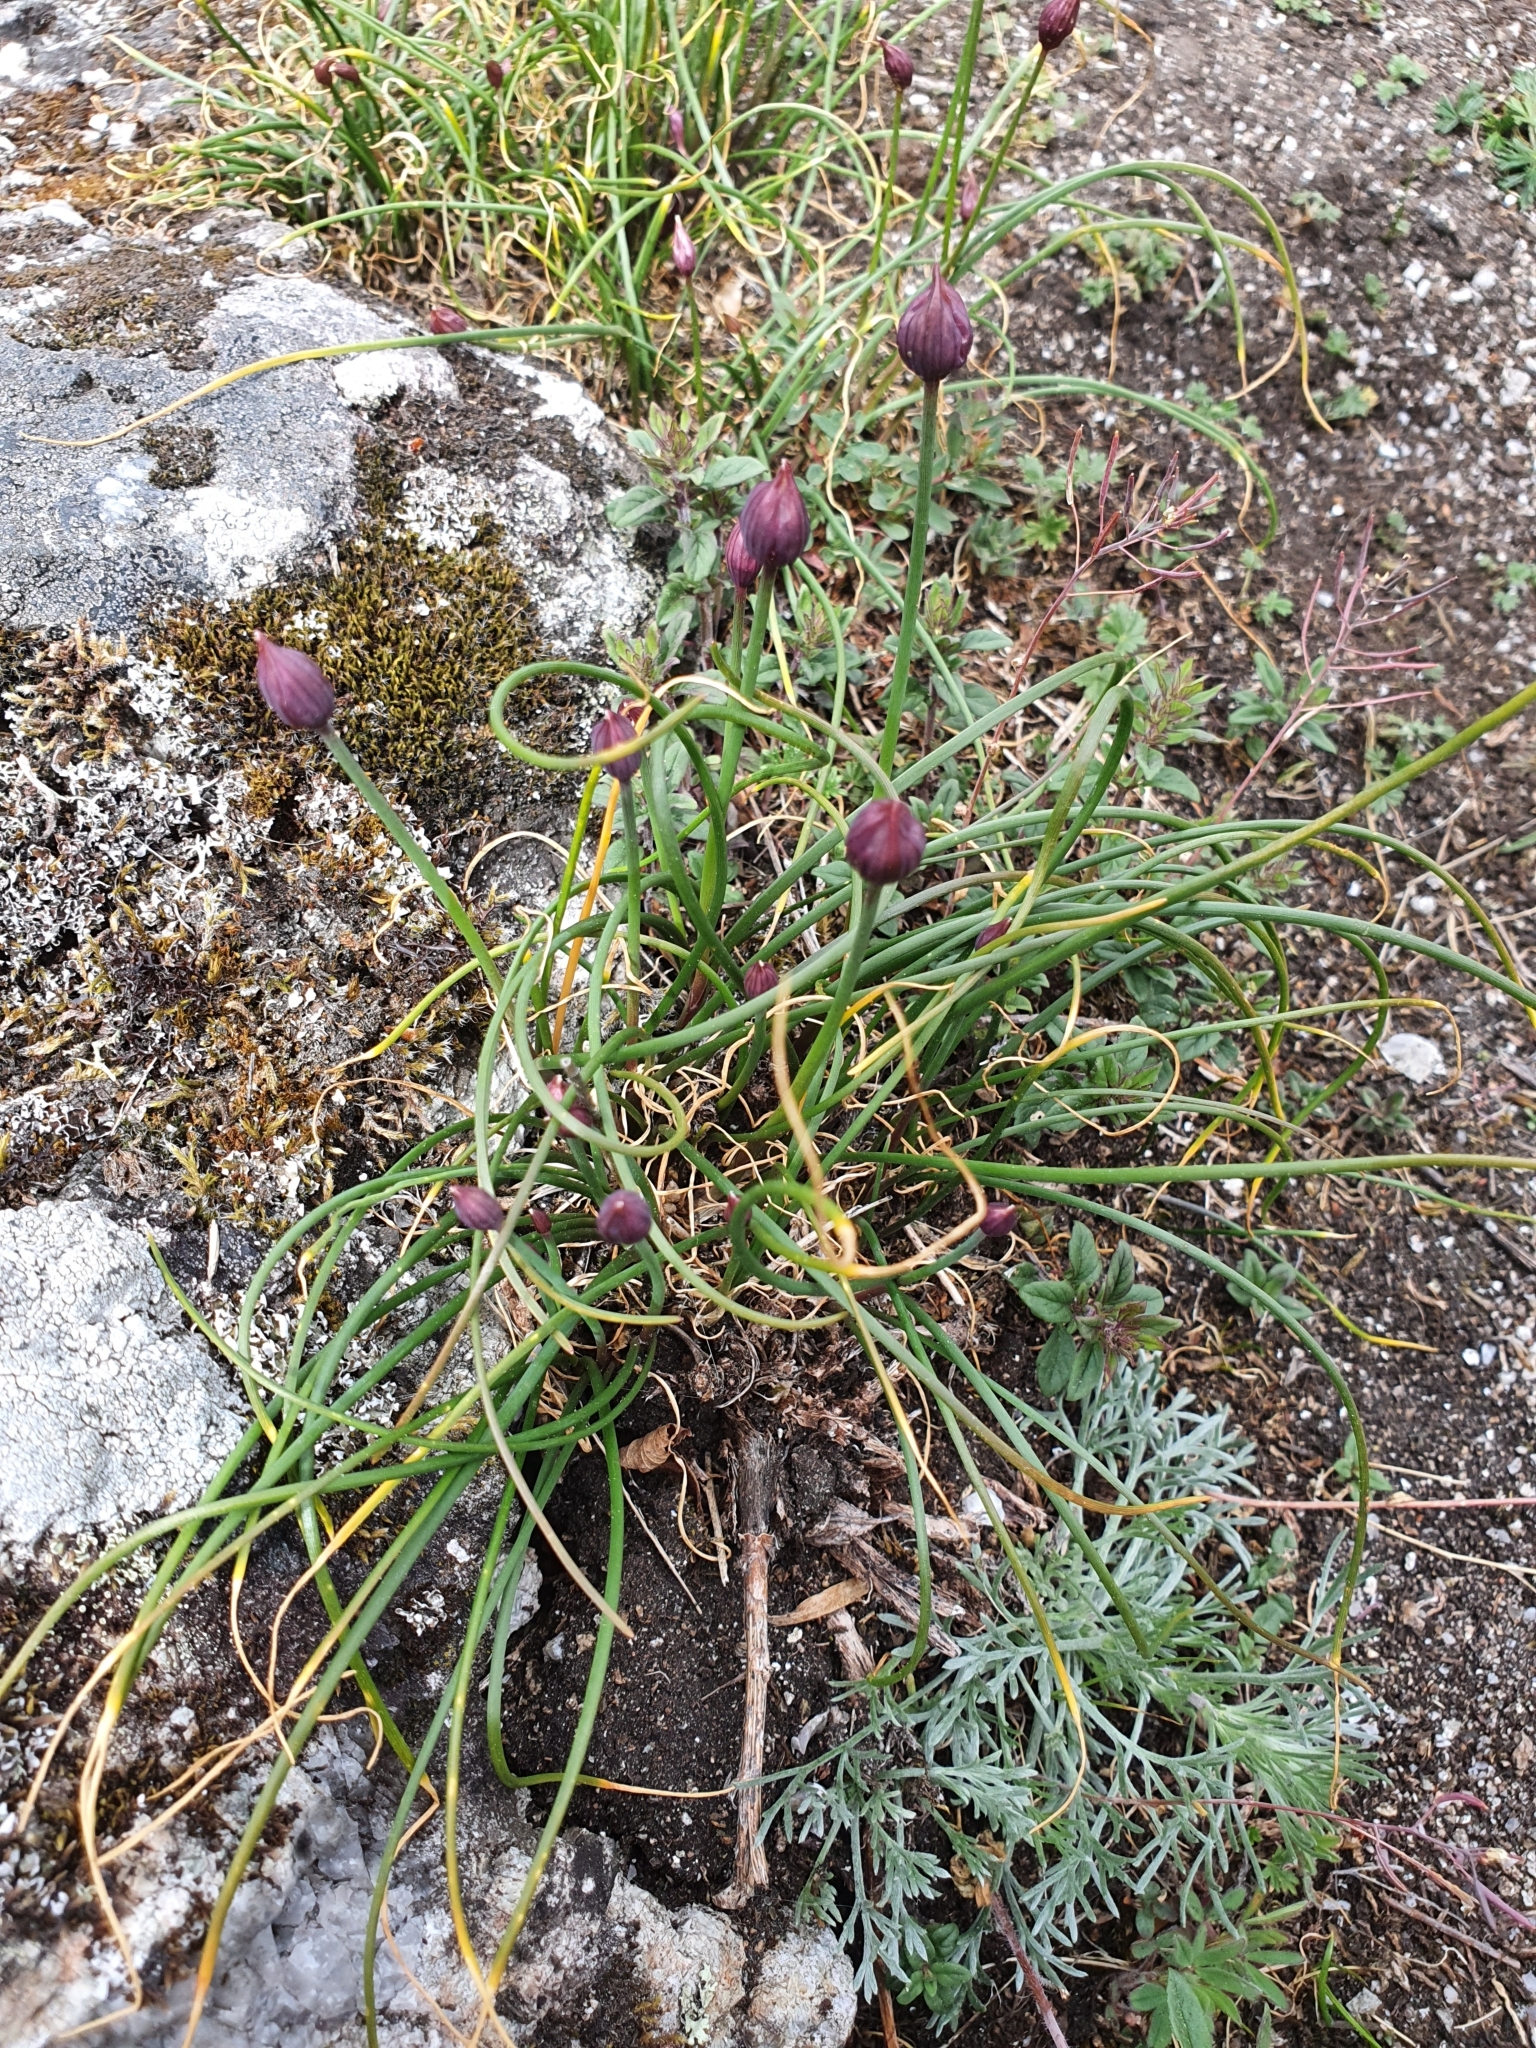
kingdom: Plantae
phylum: Tracheophyta
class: Liliopsida
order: Asparagales
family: Amaryllidaceae
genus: Allium
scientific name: Allium schoenoprasum
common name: Chives
